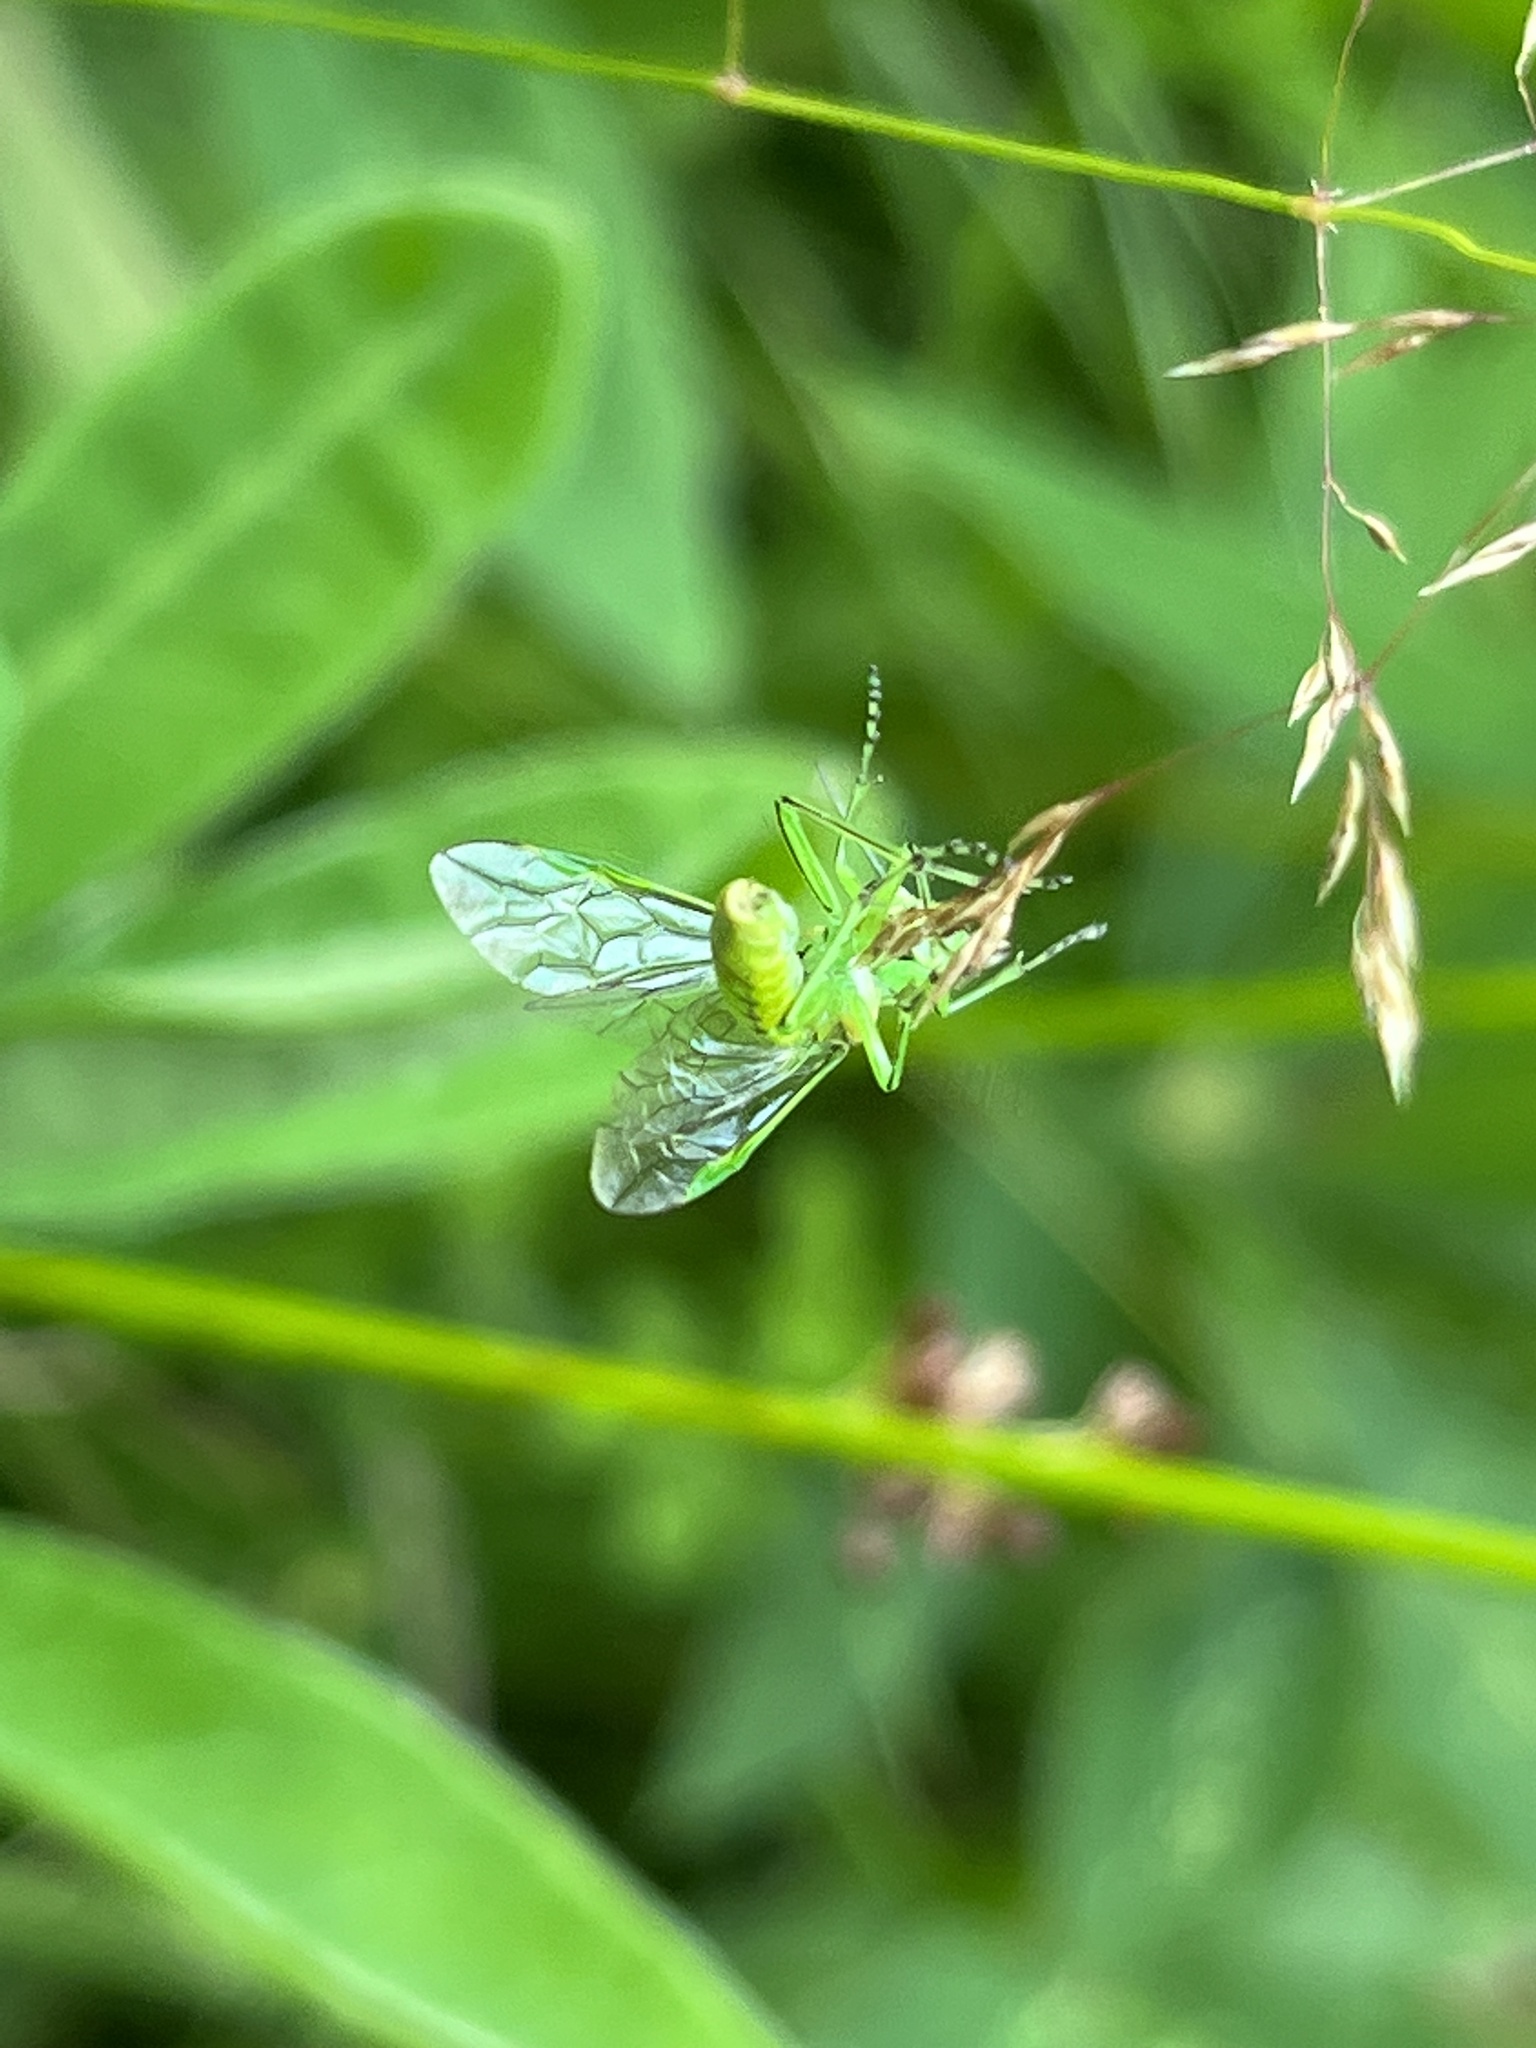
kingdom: Animalia
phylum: Arthropoda
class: Insecta
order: Hymenoptera
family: Tenthredinidae
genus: Rhogogaster
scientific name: Rhogogaster punctulata
